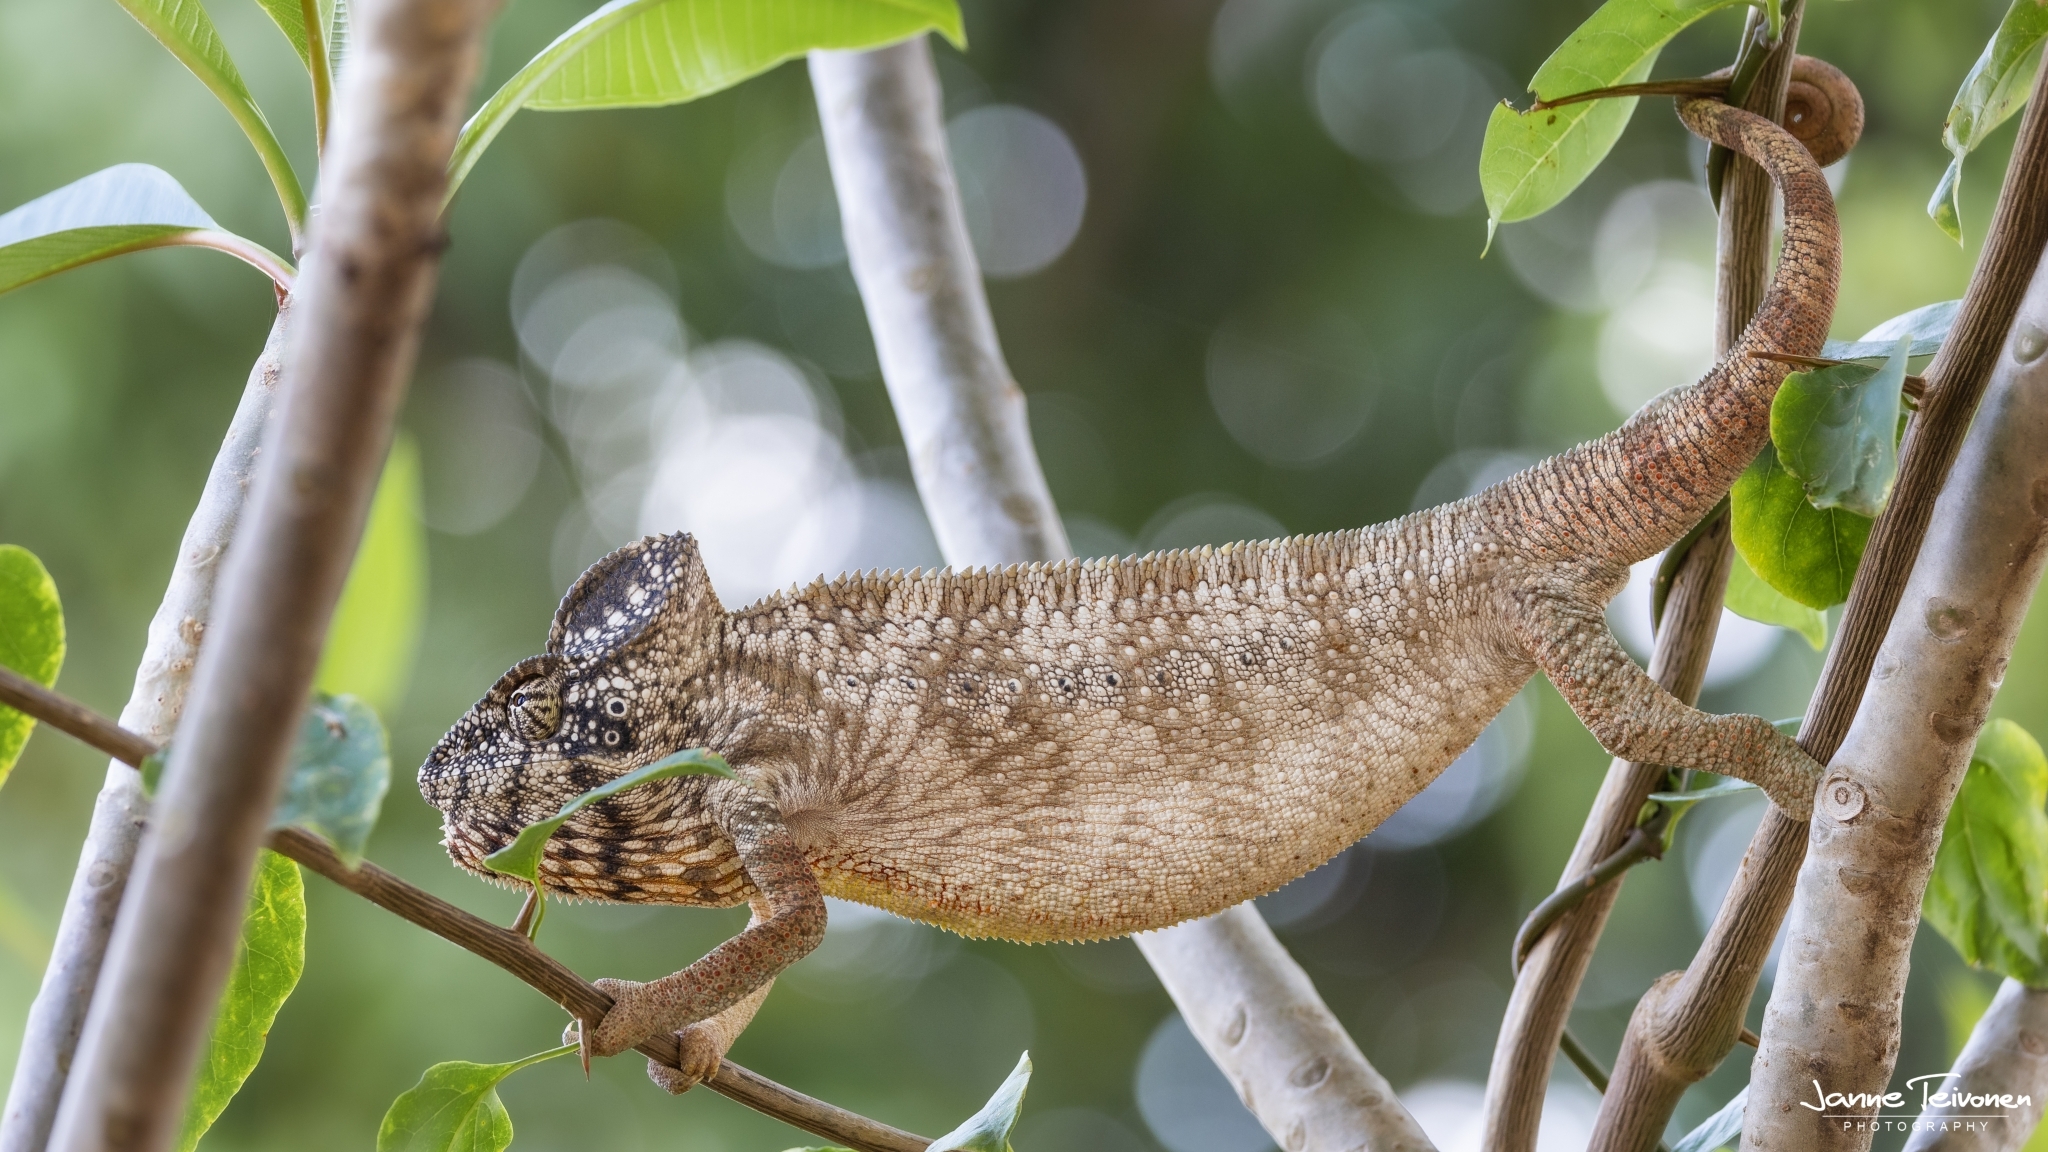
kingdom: Animalia
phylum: Chordata
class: Squamata
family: Chamaeleonidae
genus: Furcifer
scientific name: Furcifer oustaleti
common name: Oustalet's chameleon
